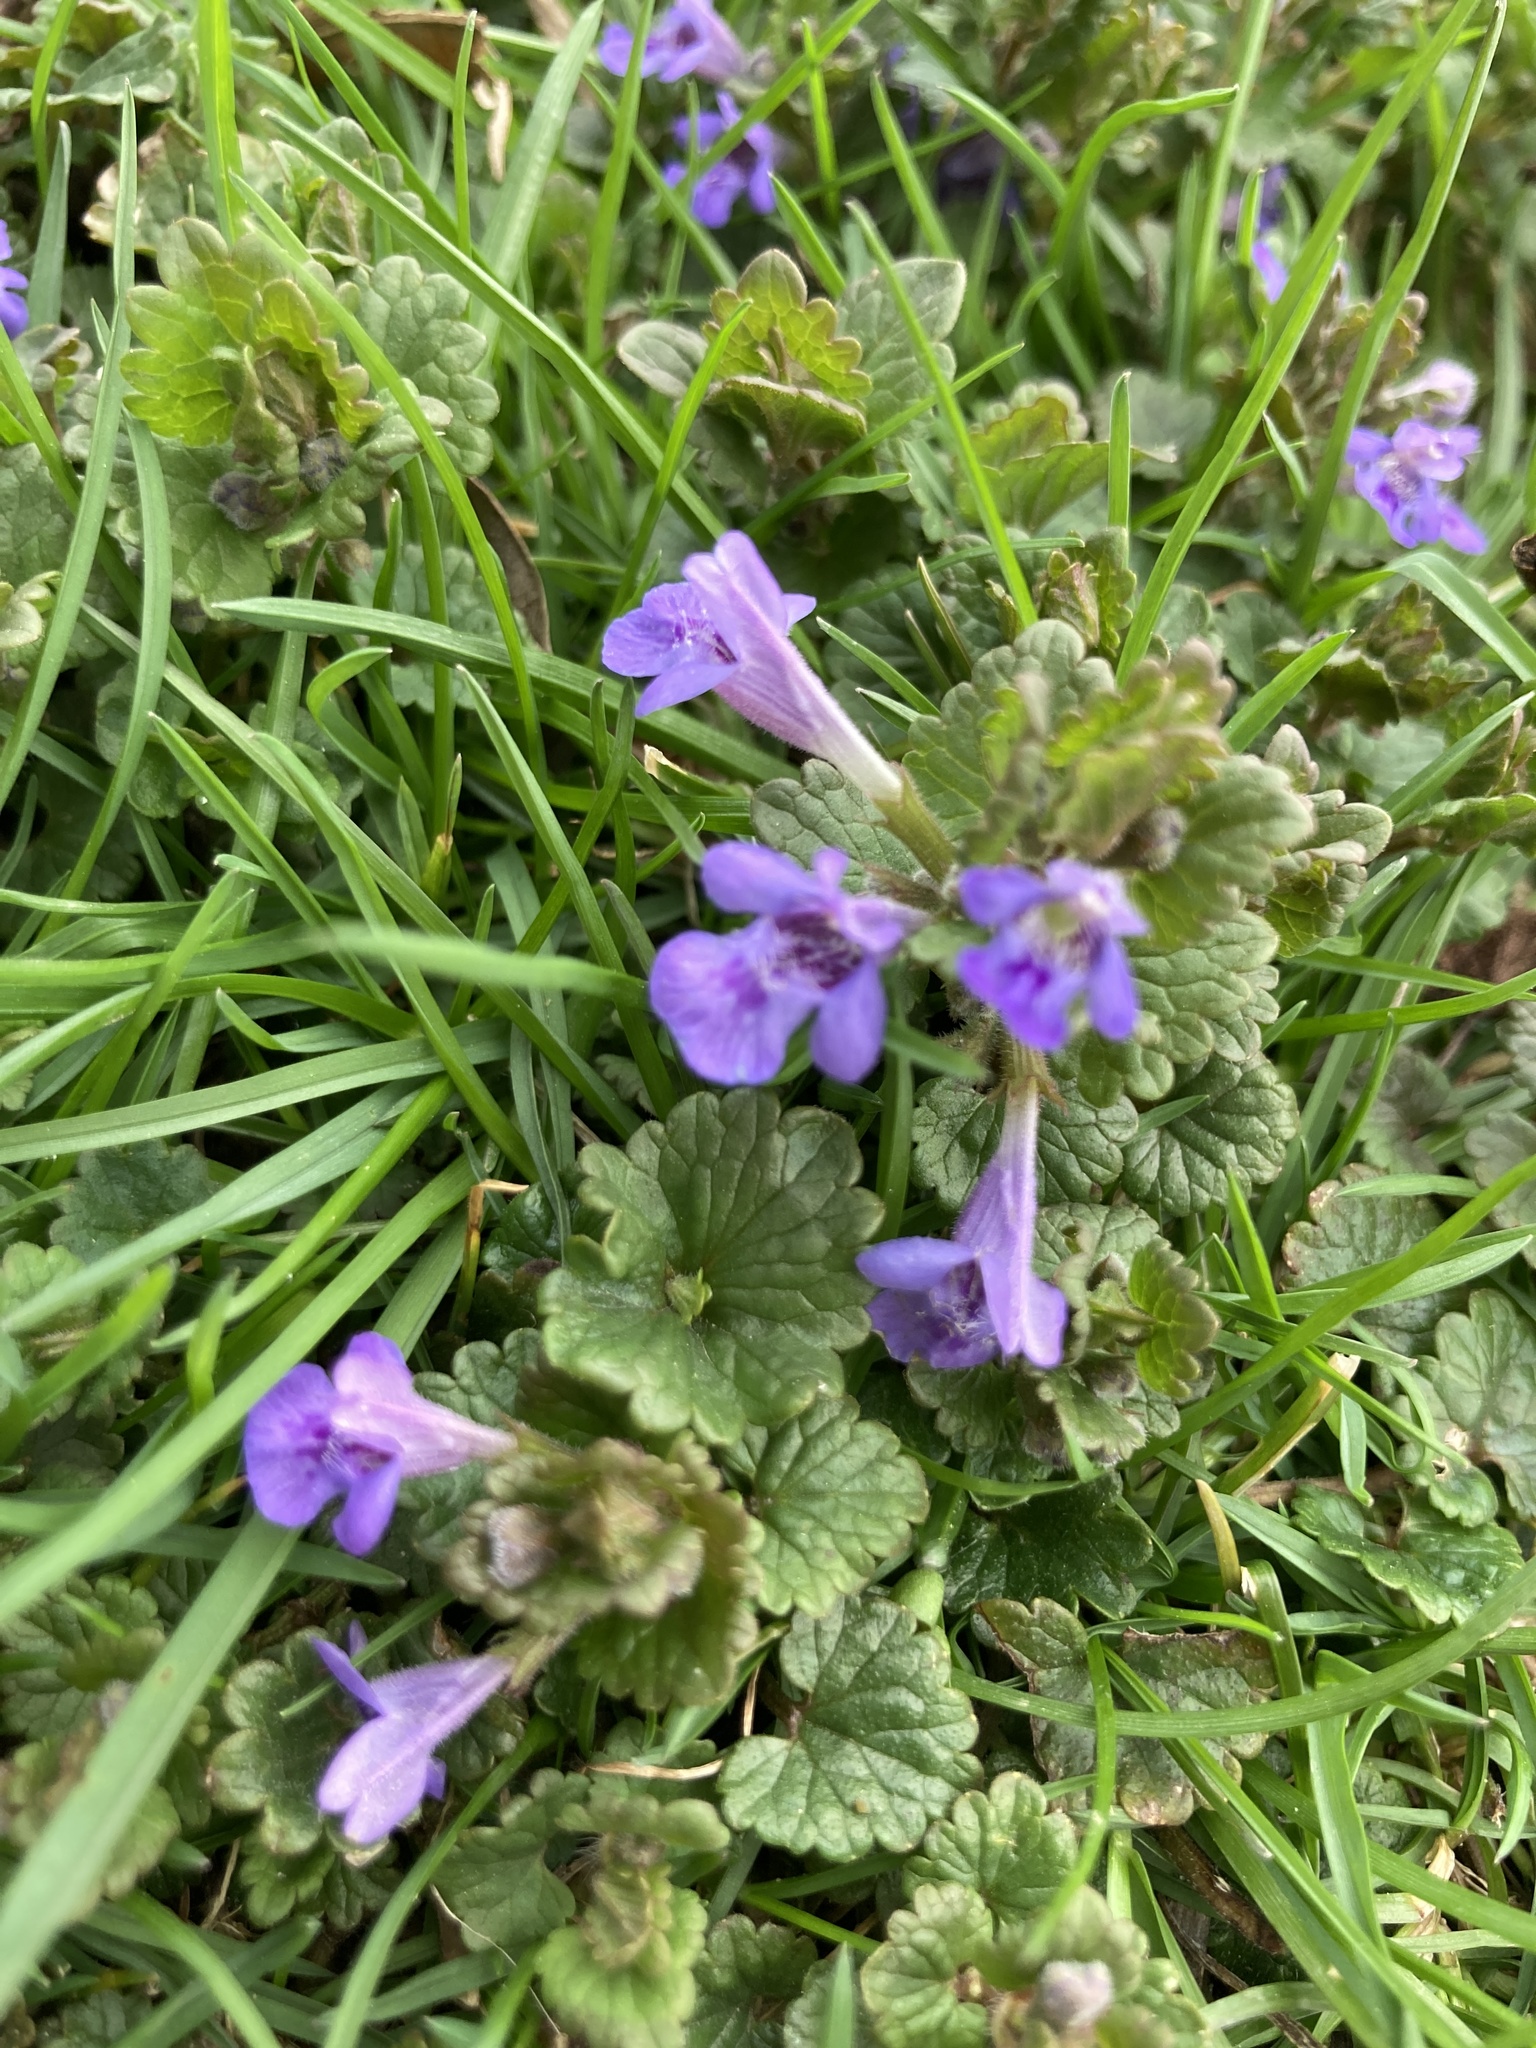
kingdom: Plantae
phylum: Tracheophyta
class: Magnoliopsida
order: Lamiales
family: Lamiaceae
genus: Glechoma
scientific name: Glechoma hederacea
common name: Ground ivy
